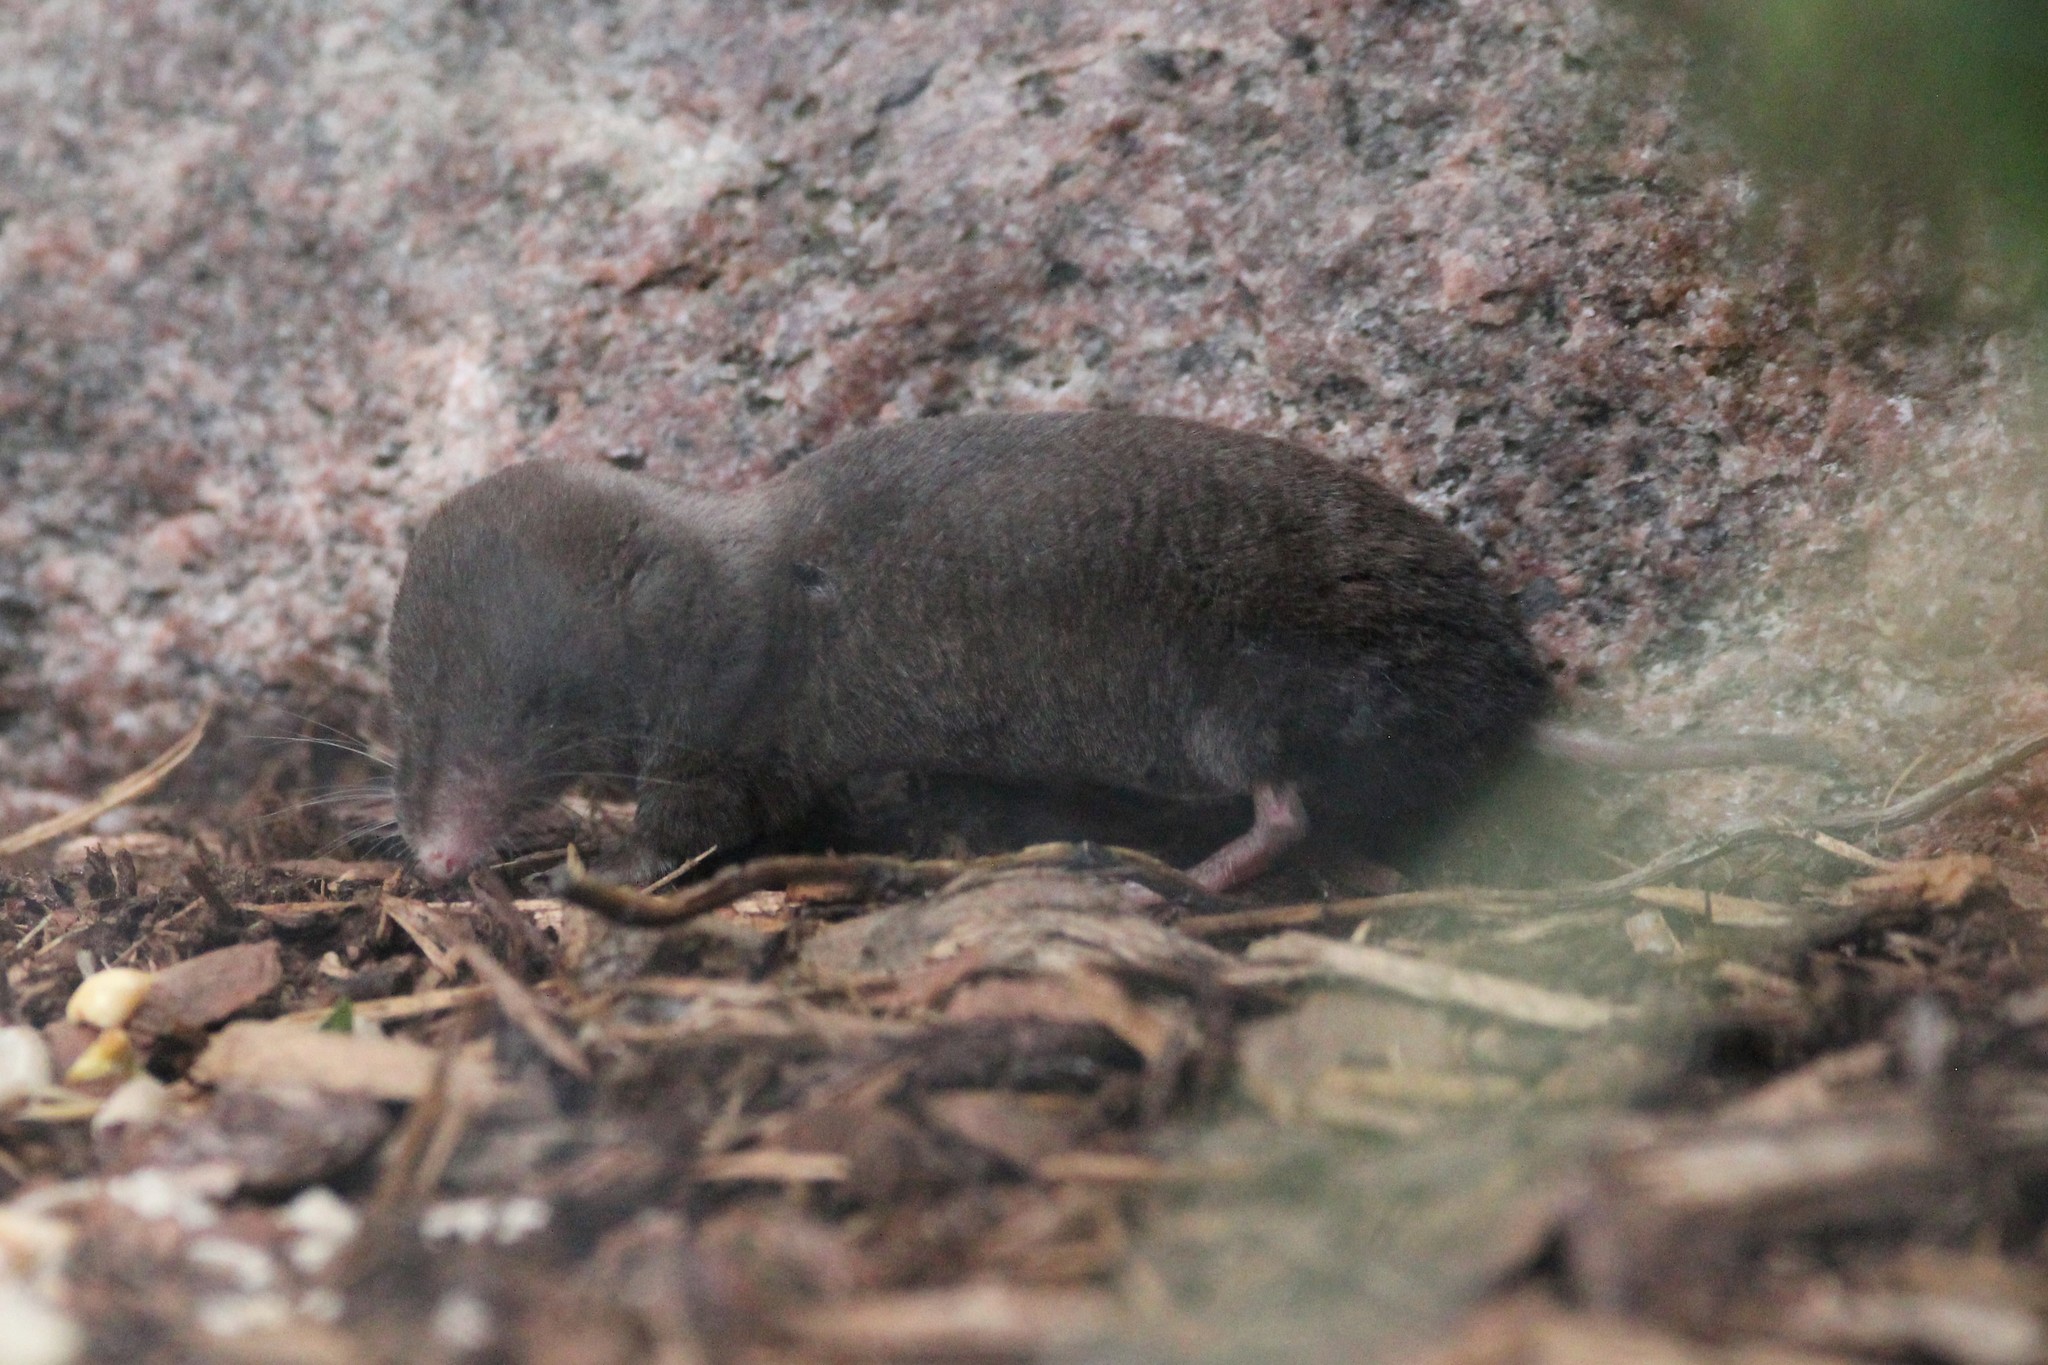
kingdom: Animalia
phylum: Chordata
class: Mammalia
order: Soricomorpha
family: Soricidae
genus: Blarina
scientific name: Blarina brevicauda
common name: Northern short-tailed shrew
